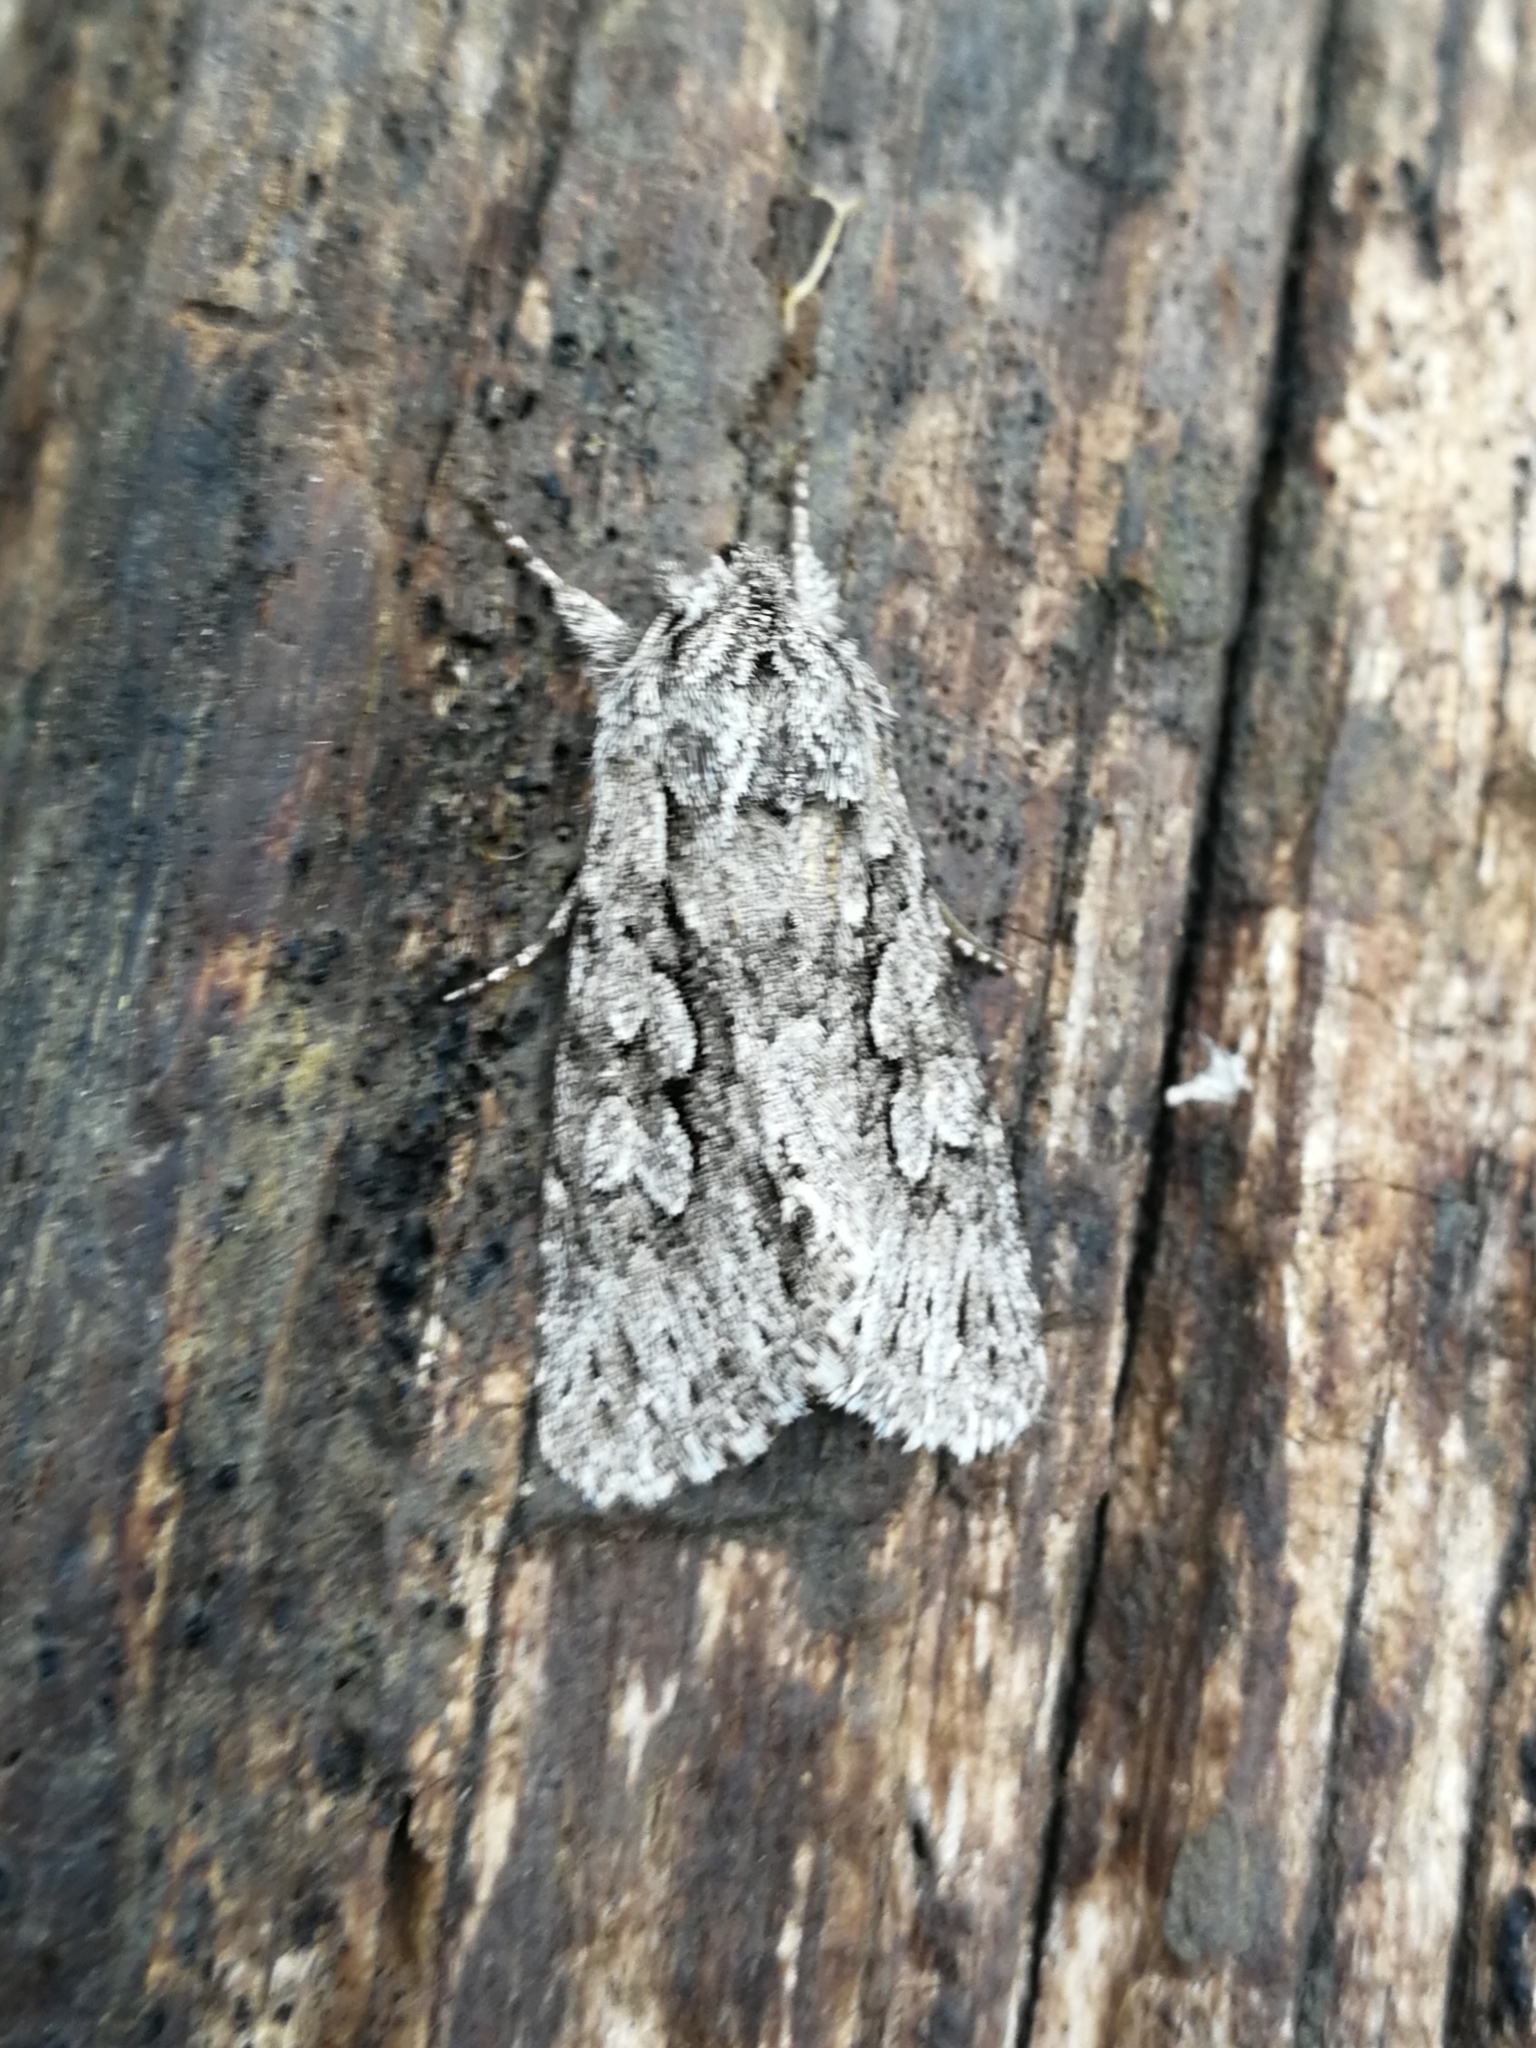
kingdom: Animalia
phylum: Arthropoda
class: Insecta
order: Lepidoptera
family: Noctuidae
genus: Xylocampa
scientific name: Xylocampa areola
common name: Early grey
